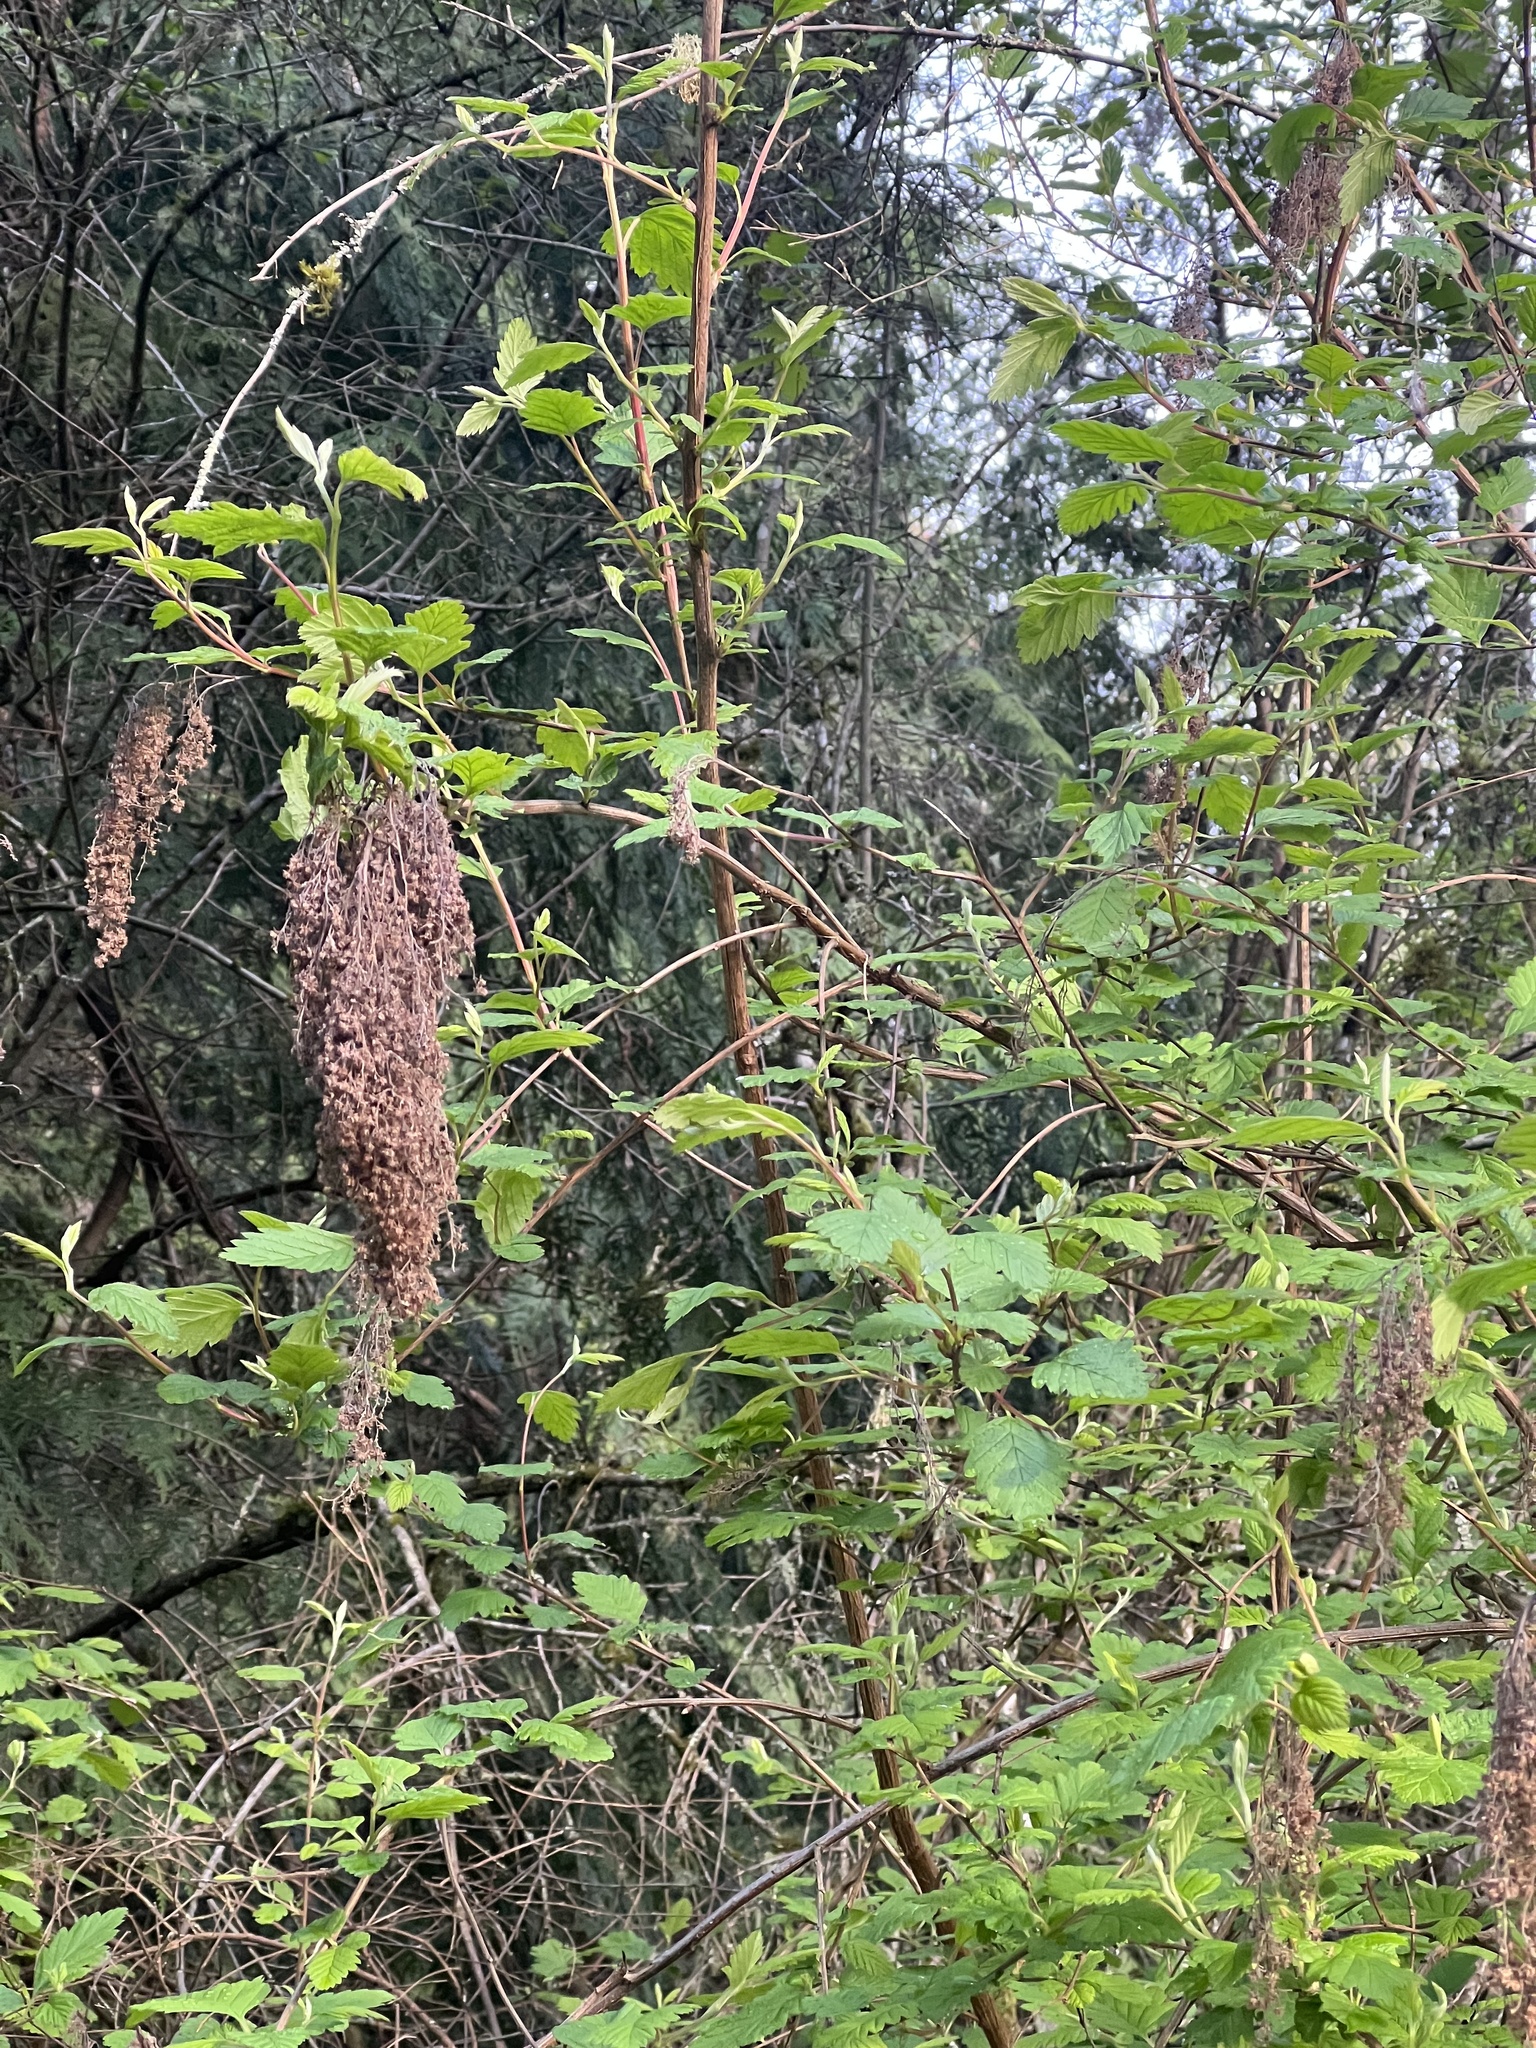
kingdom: Plantae
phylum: Tracheophyta
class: Magnoliopsida
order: Rosales
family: Rosaceae
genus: Holodiscus
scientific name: Holodiscus discolor
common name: Oceanspray
